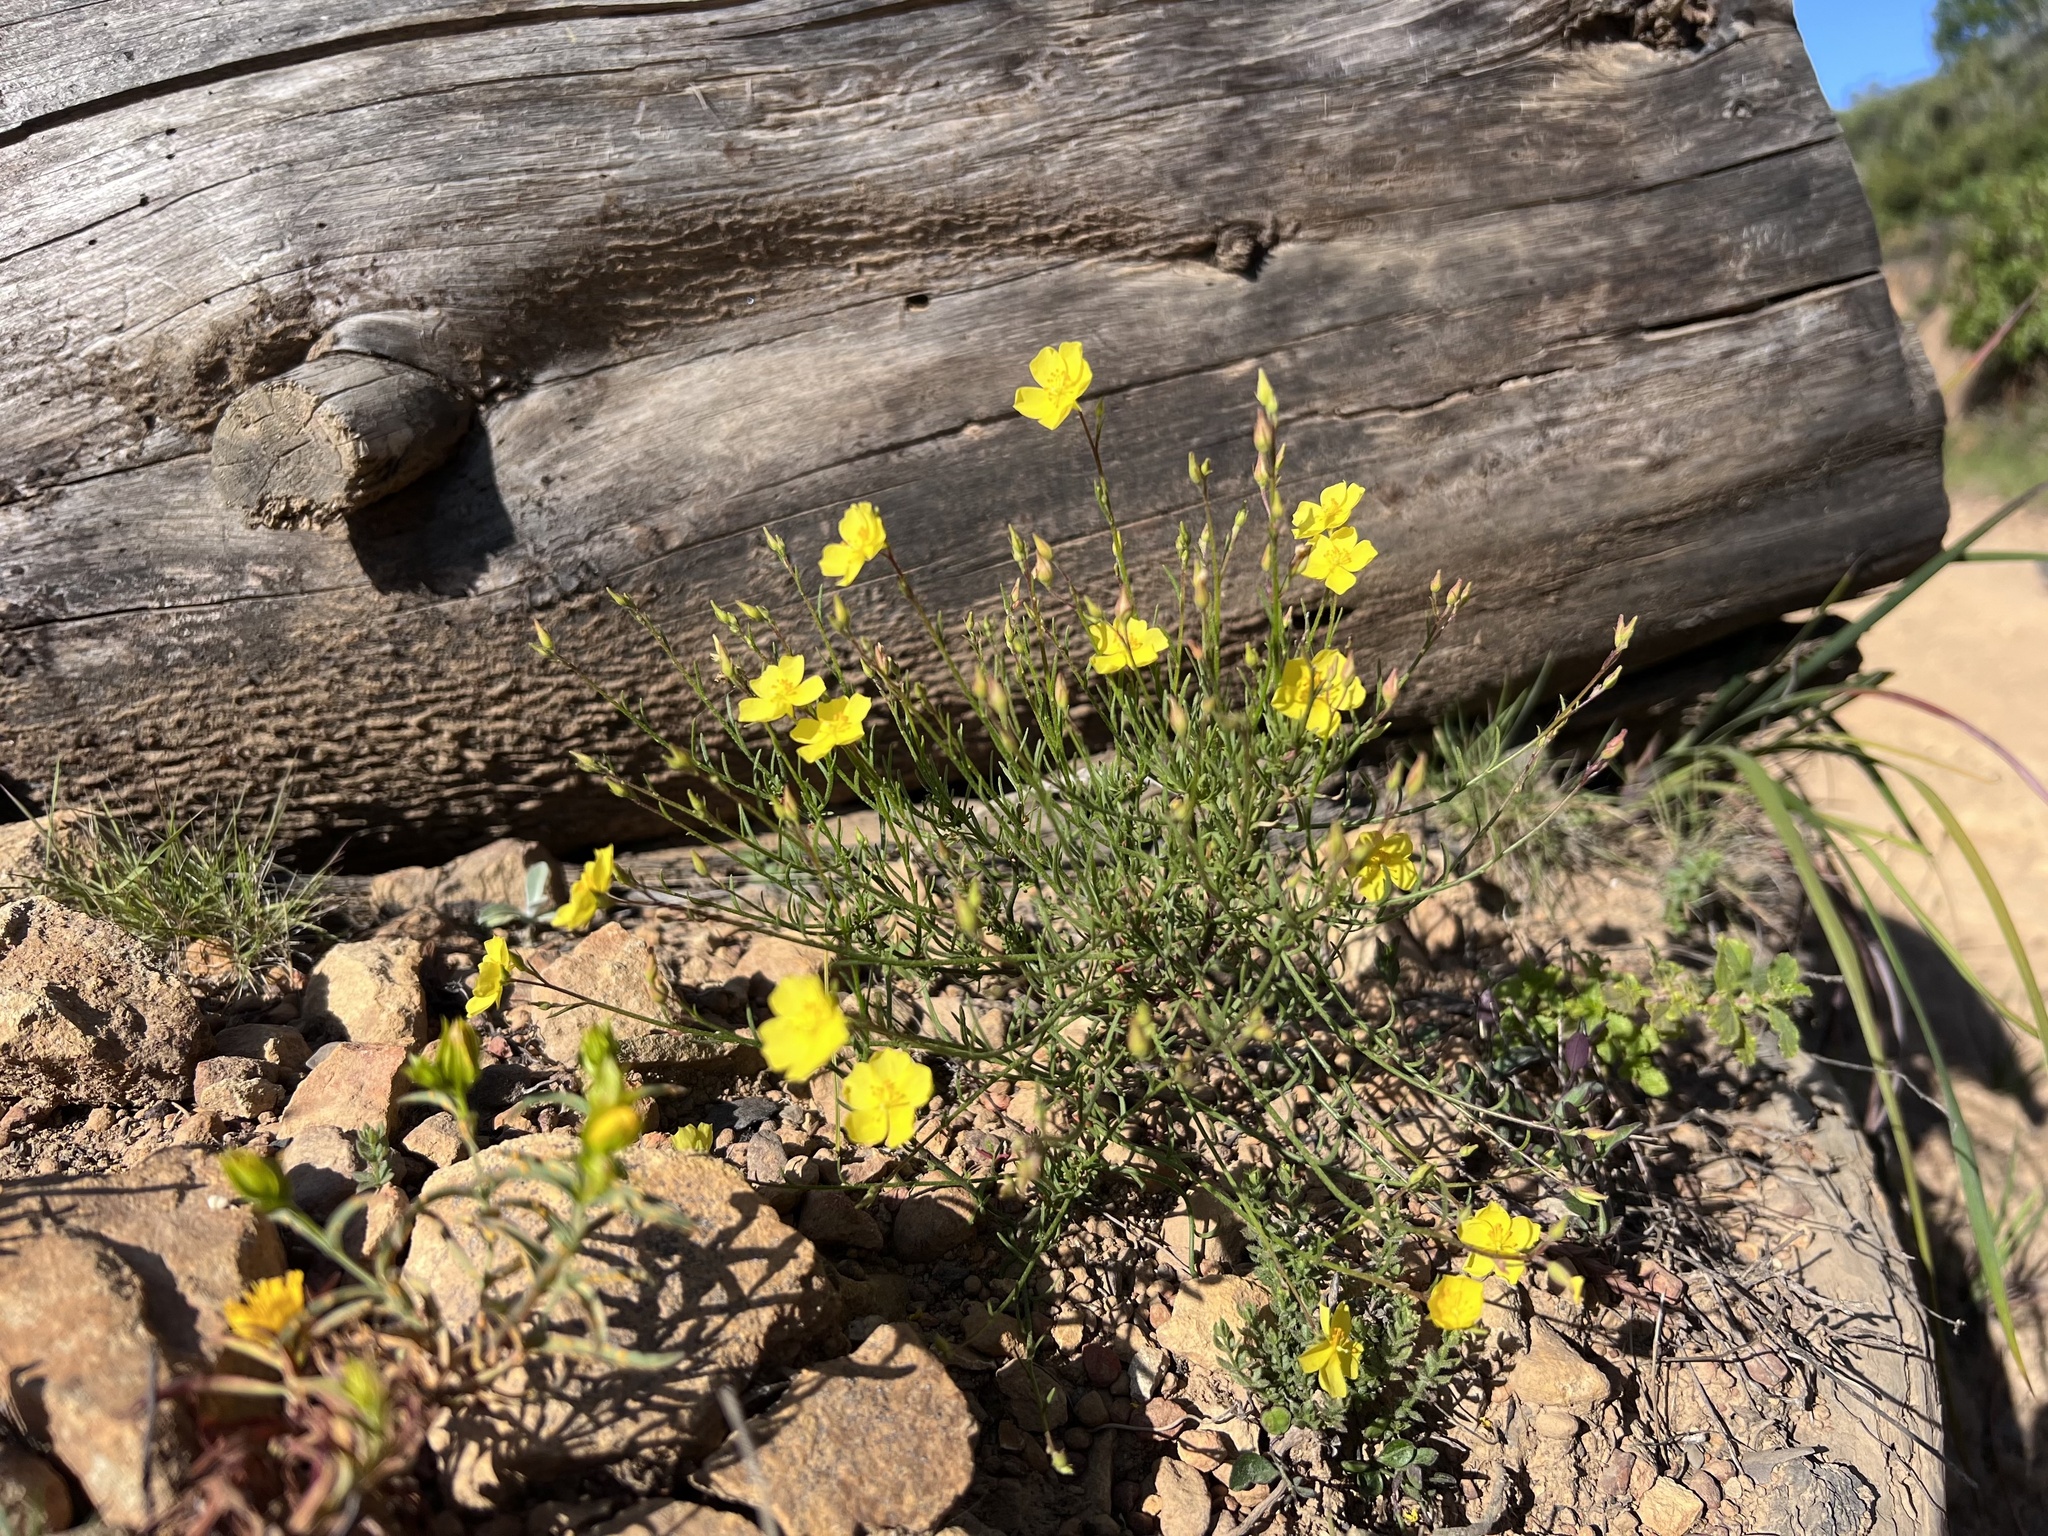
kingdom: Plantae
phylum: Tracheophyta
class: Magnoliopsida
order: Malvales
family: Cistaceae
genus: Crocanthemum
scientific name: Crocanthemum scoparium
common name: Broom-rose
